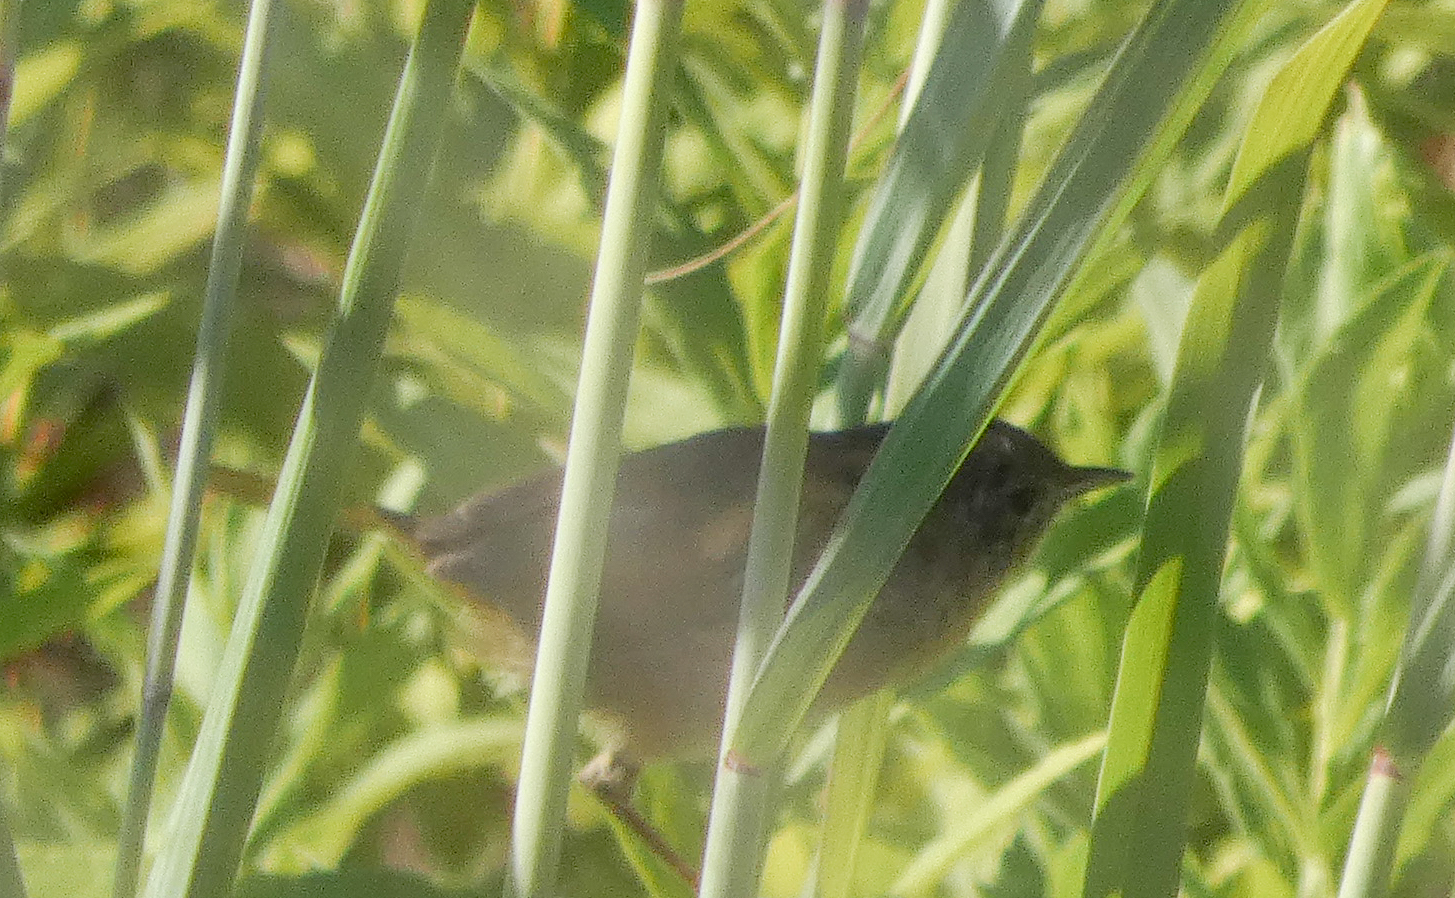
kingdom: Animalia
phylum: Chordata
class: Aves
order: Passeriformes
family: Parulidae
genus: Geothlypis
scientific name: Geothlypis trichas
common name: Common yellowthroat
